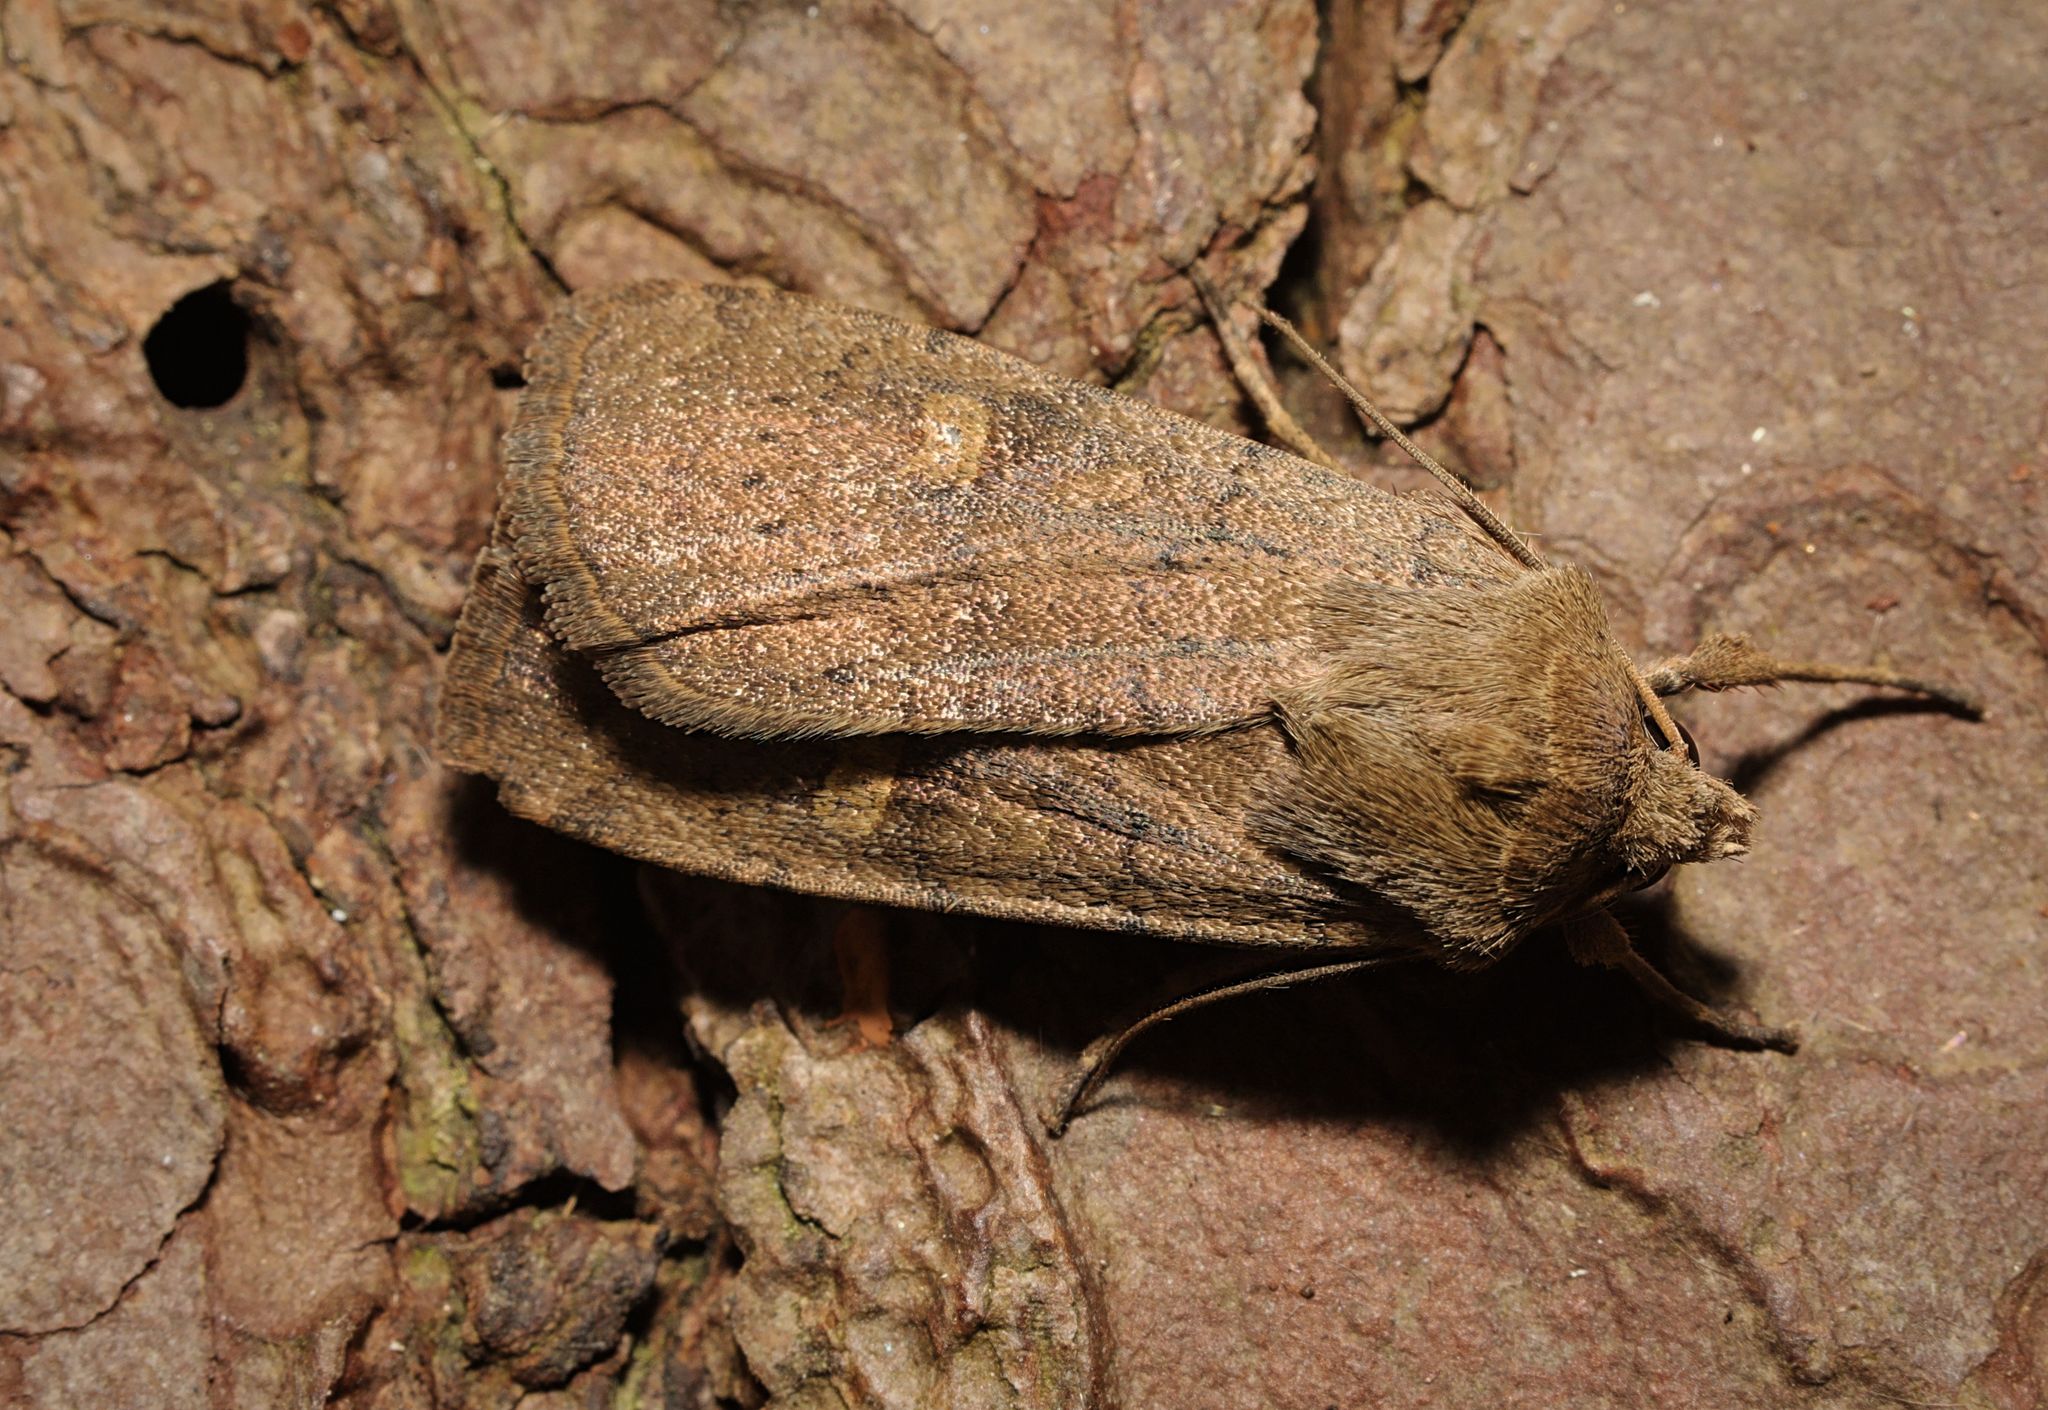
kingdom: Animalia
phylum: Arthropoda
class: Insecta
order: Lepidoptera
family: Noctuidae
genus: Xestia
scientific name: Xestia xanthographa
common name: Square-spot rustic
